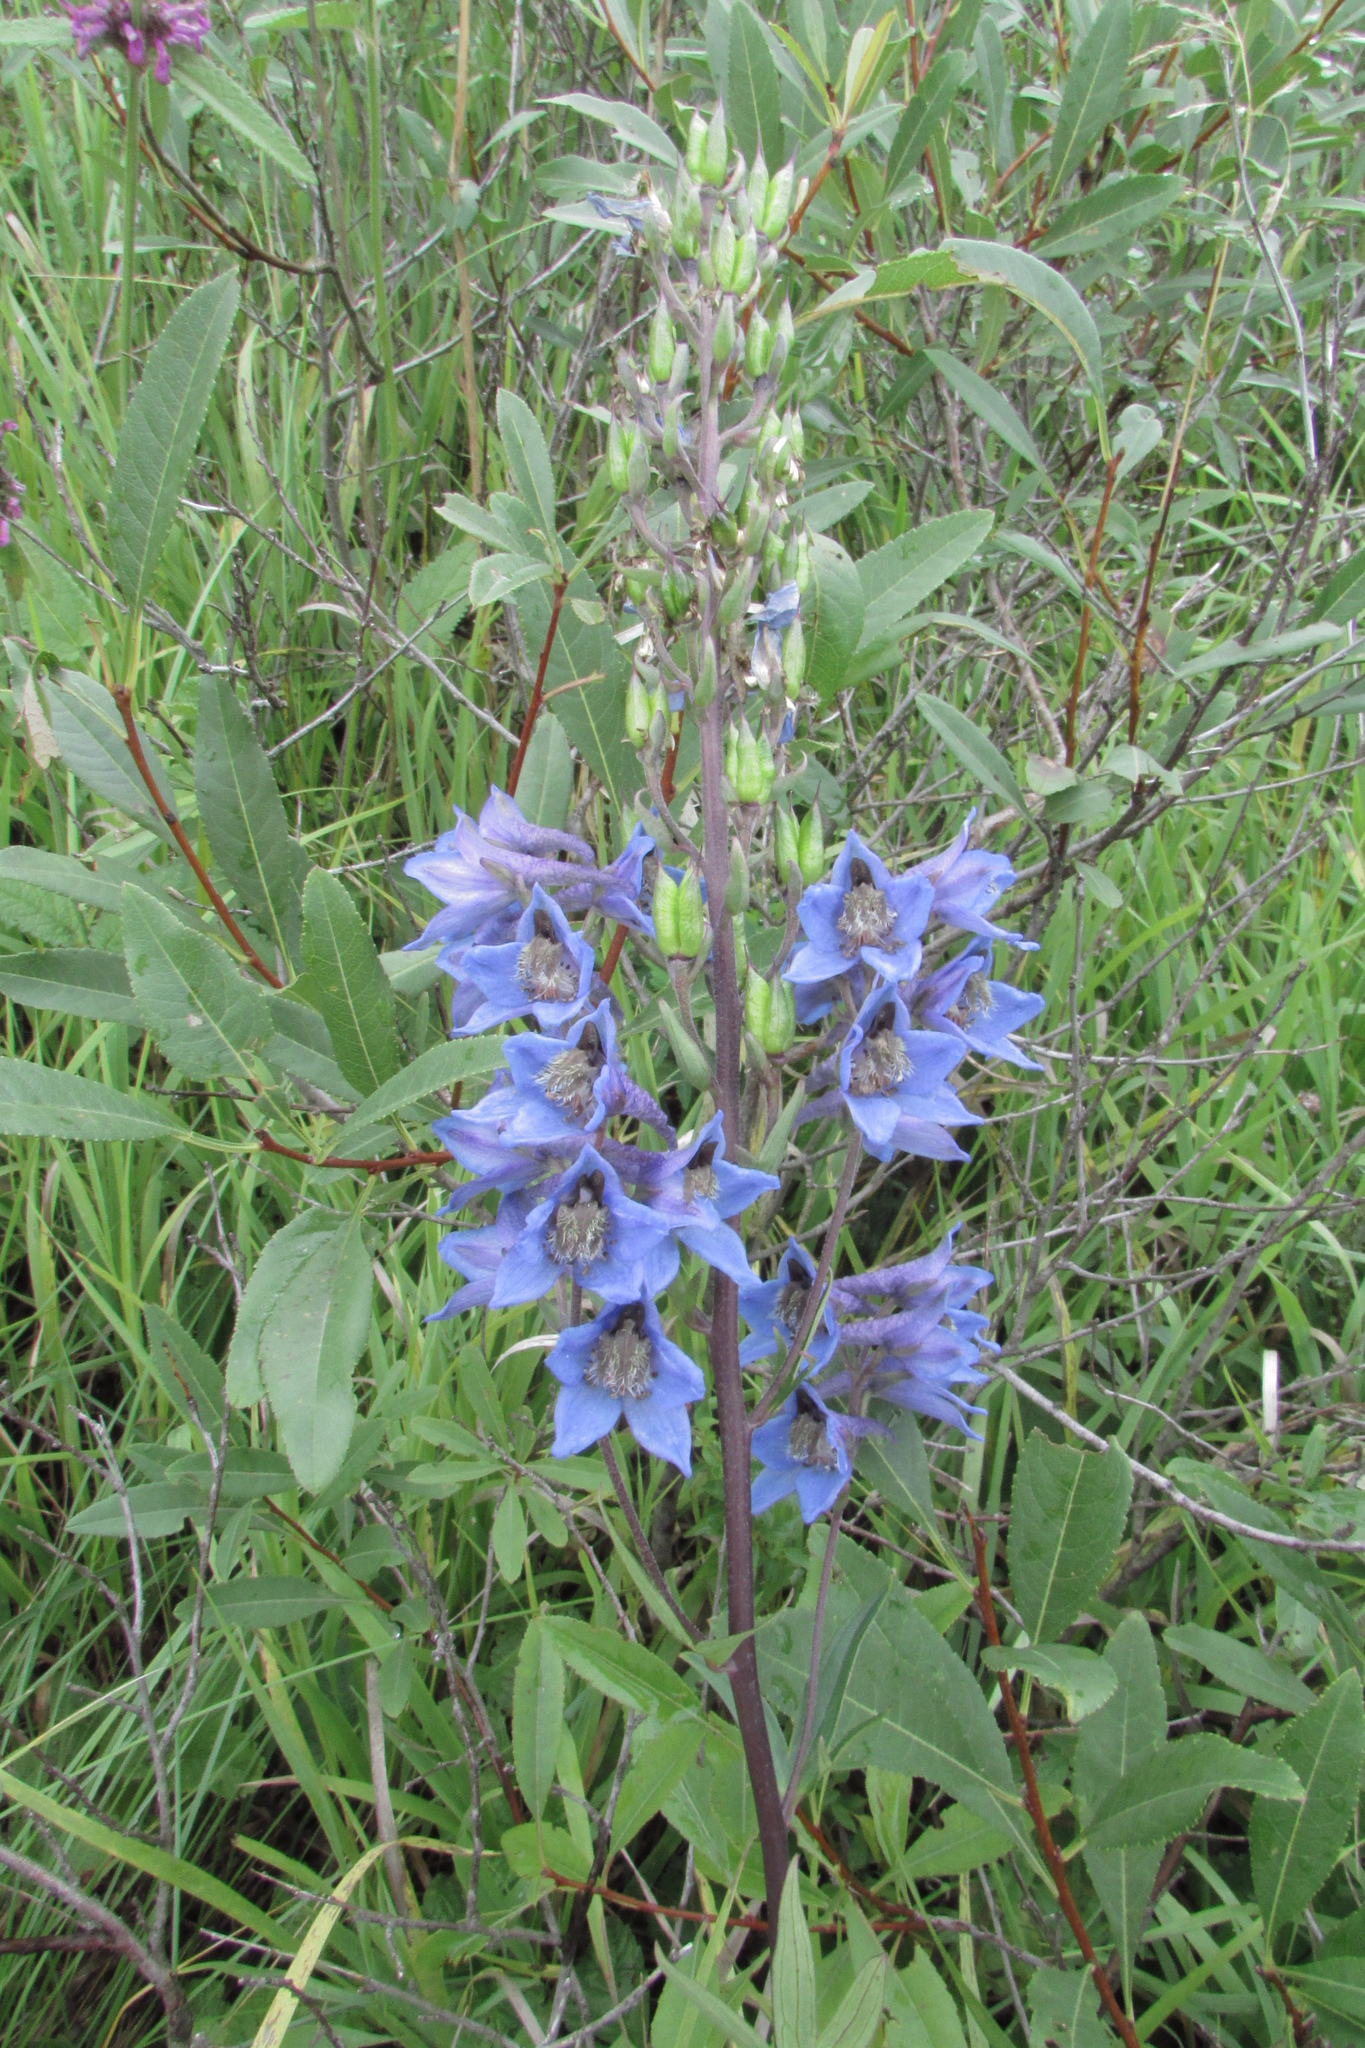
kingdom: Plantae
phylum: Tracheophyta
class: Magnoliopsida
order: Ranunculales
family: Ranunculaceae
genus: Delphinium
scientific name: Delphinium cuneatum
